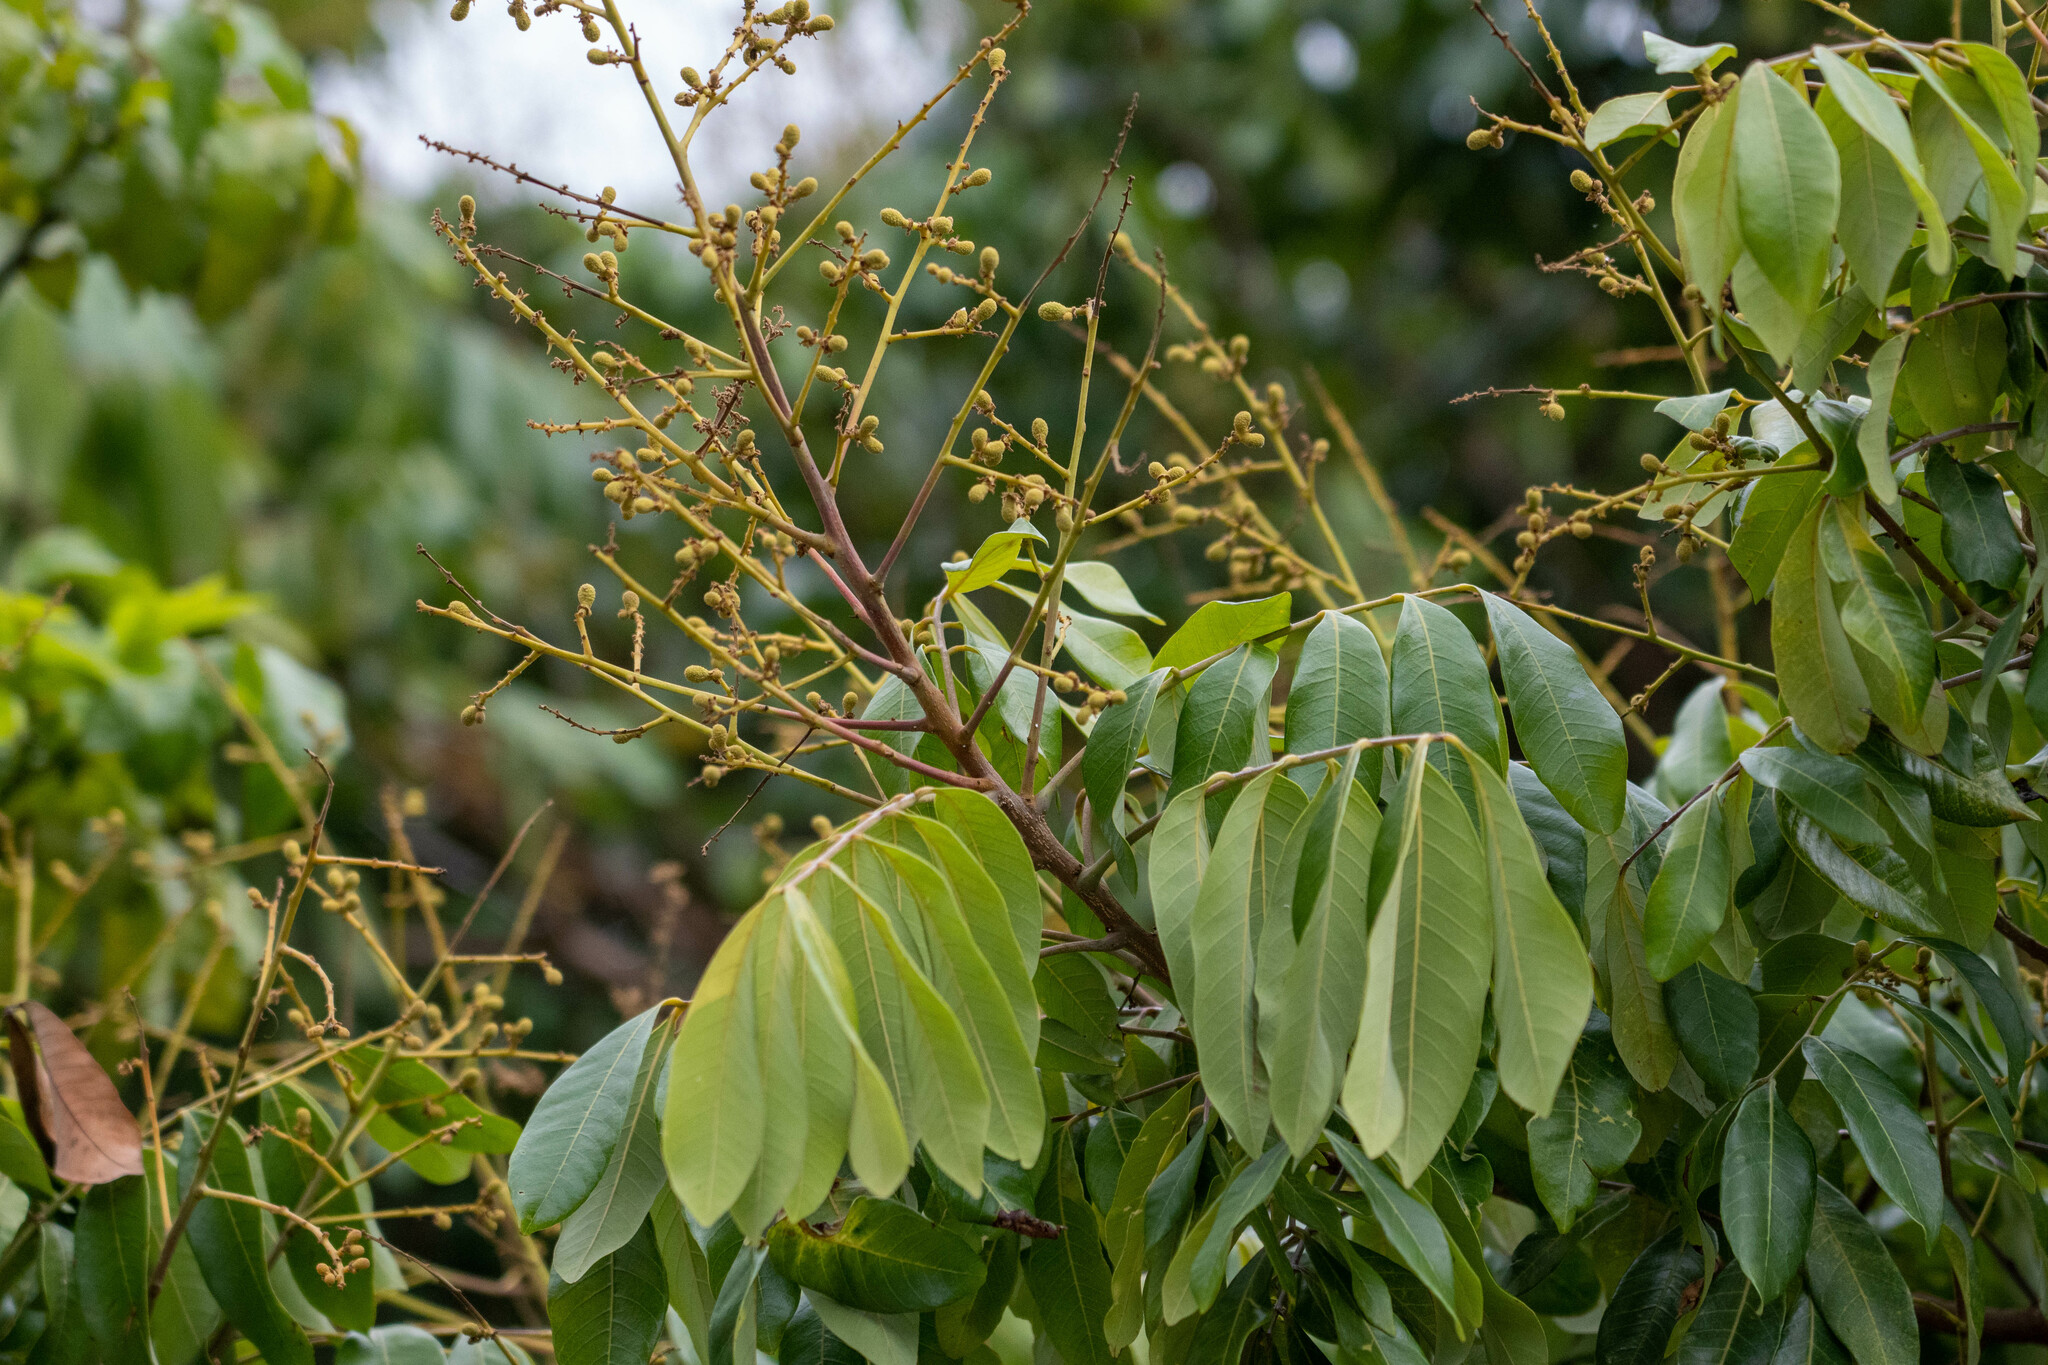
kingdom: Plantae
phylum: Tracheophyta
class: Magnoliopsida
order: Sapindales
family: Sapindaceae
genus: Dimocarpus
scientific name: Dimocarpus longan
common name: Longan
